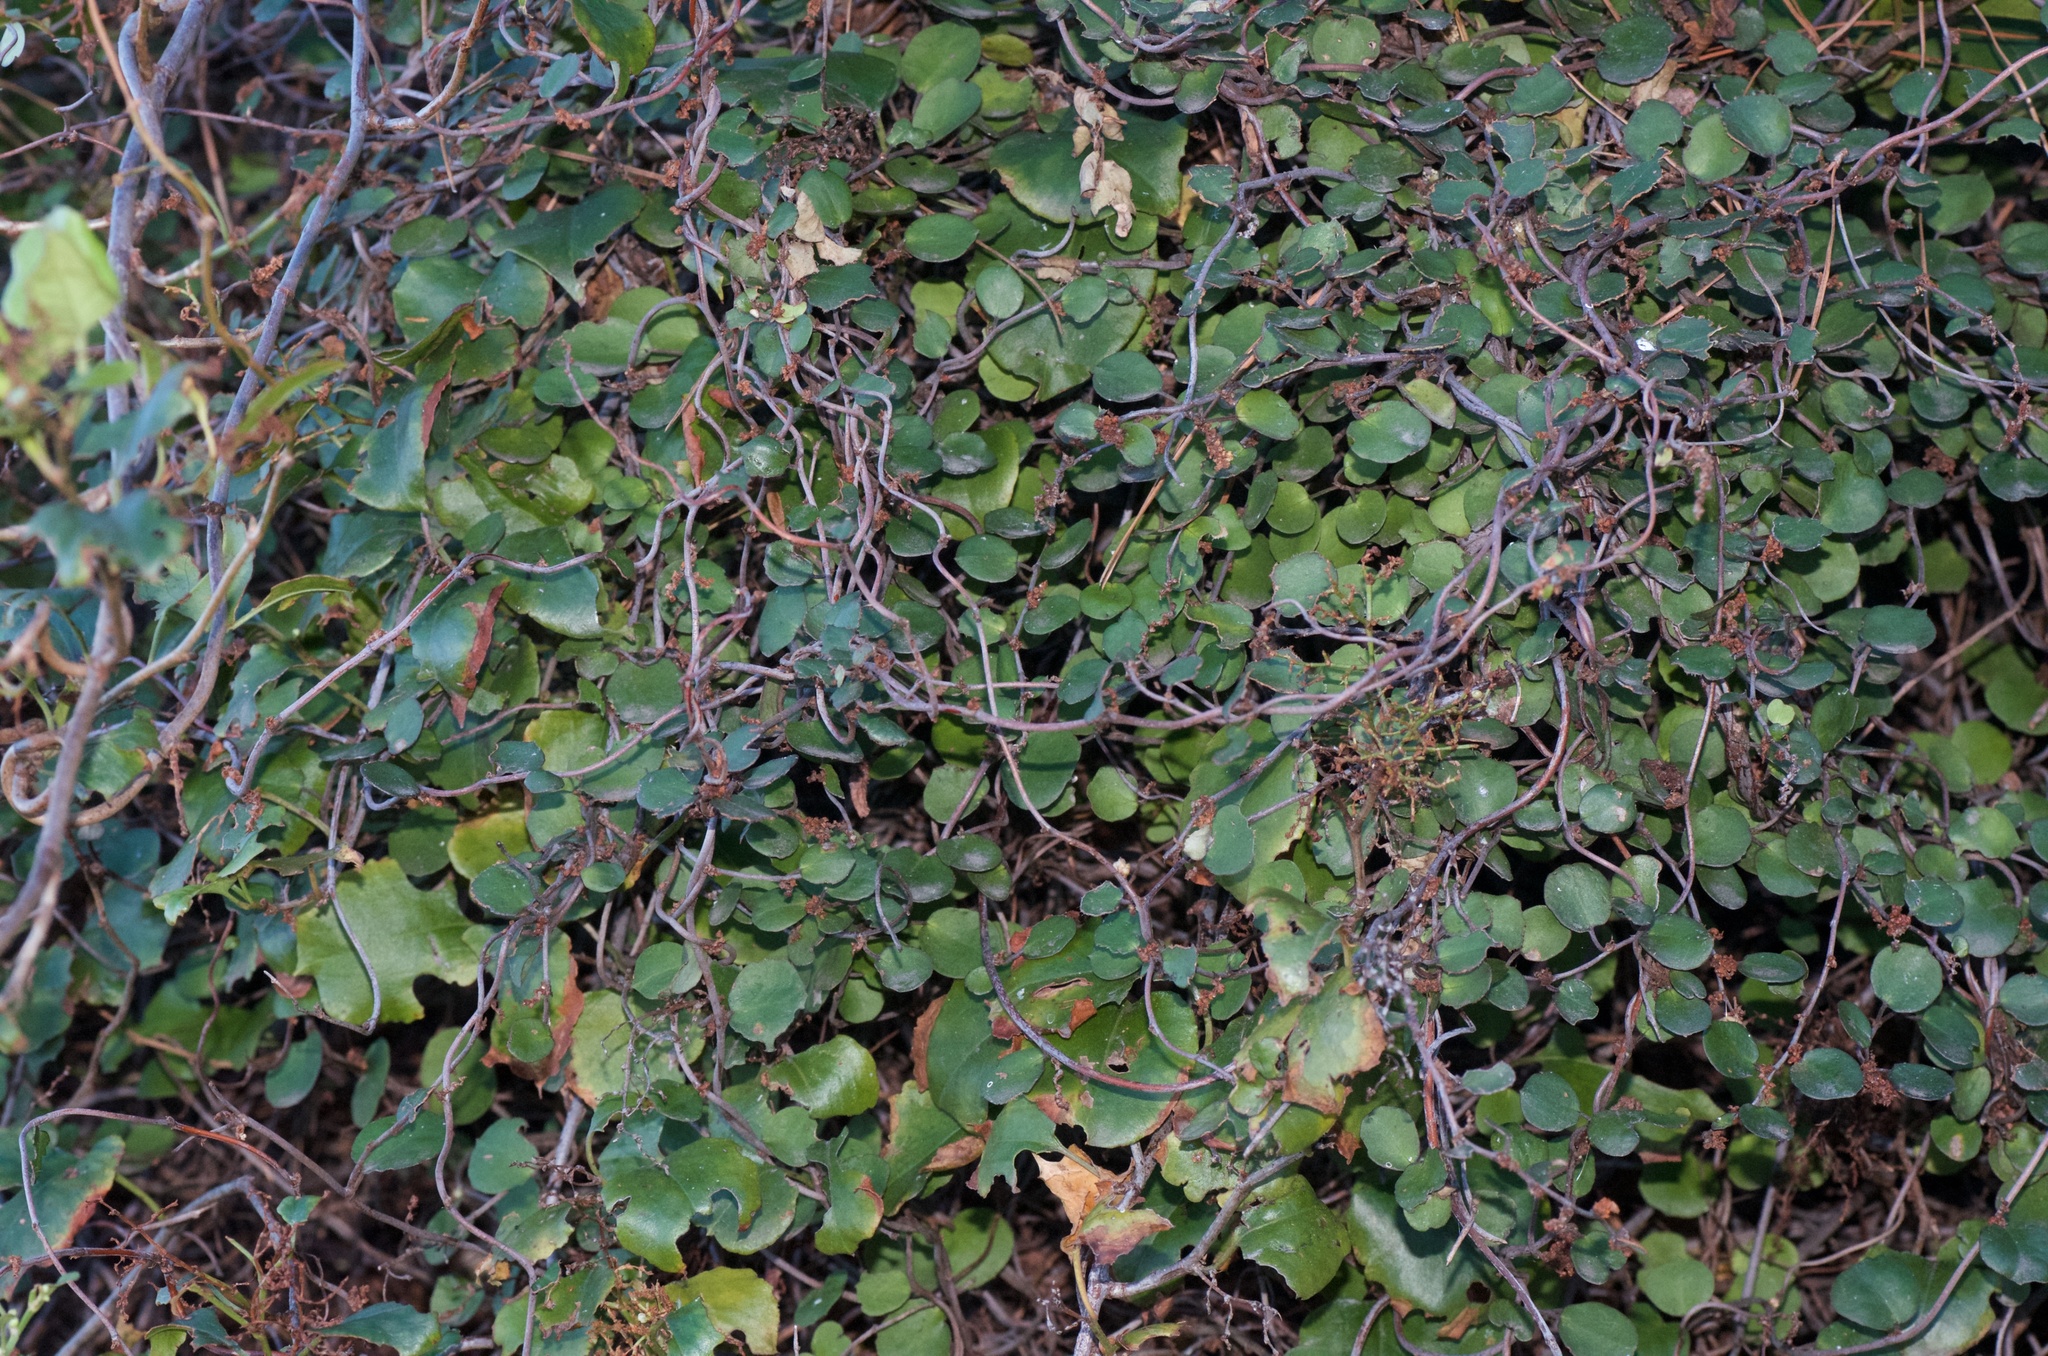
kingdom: Plantae
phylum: Tracheophyta
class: Magnoliopsida
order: Caryophyllales
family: Polygonaceae
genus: Muehlenbeckia
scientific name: Muehlenbeckia complexa
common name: Wireplant
